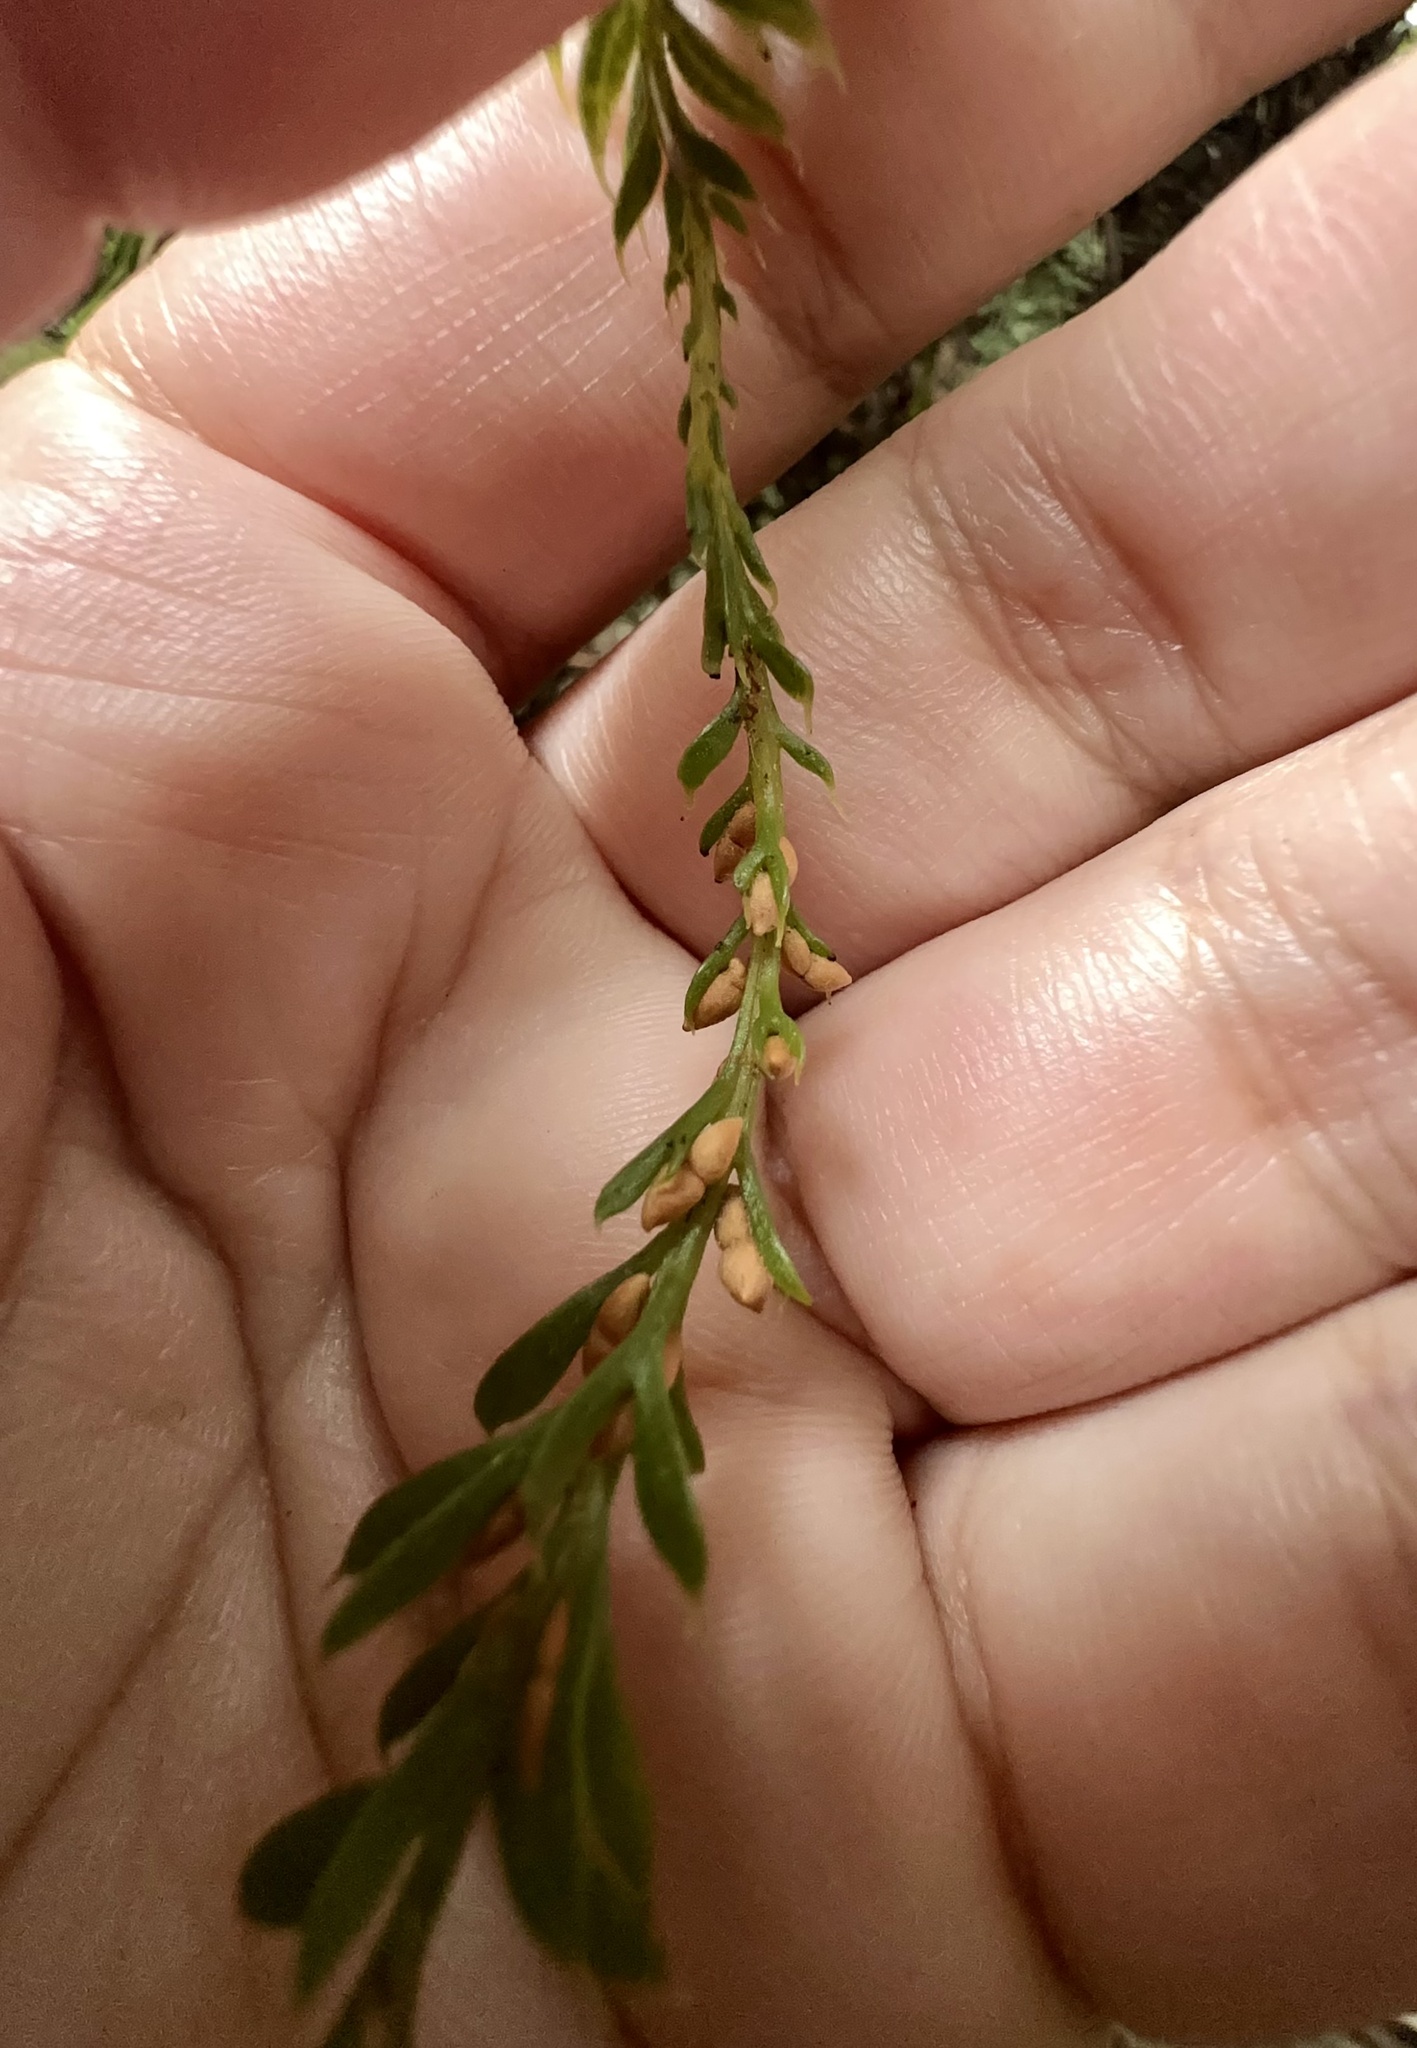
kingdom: Plantae
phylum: Tracheophyta
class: Polypodiopsida
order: Psilotales
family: Psilotaceae
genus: Tmesipteris
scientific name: Tmesipteris tannensis
